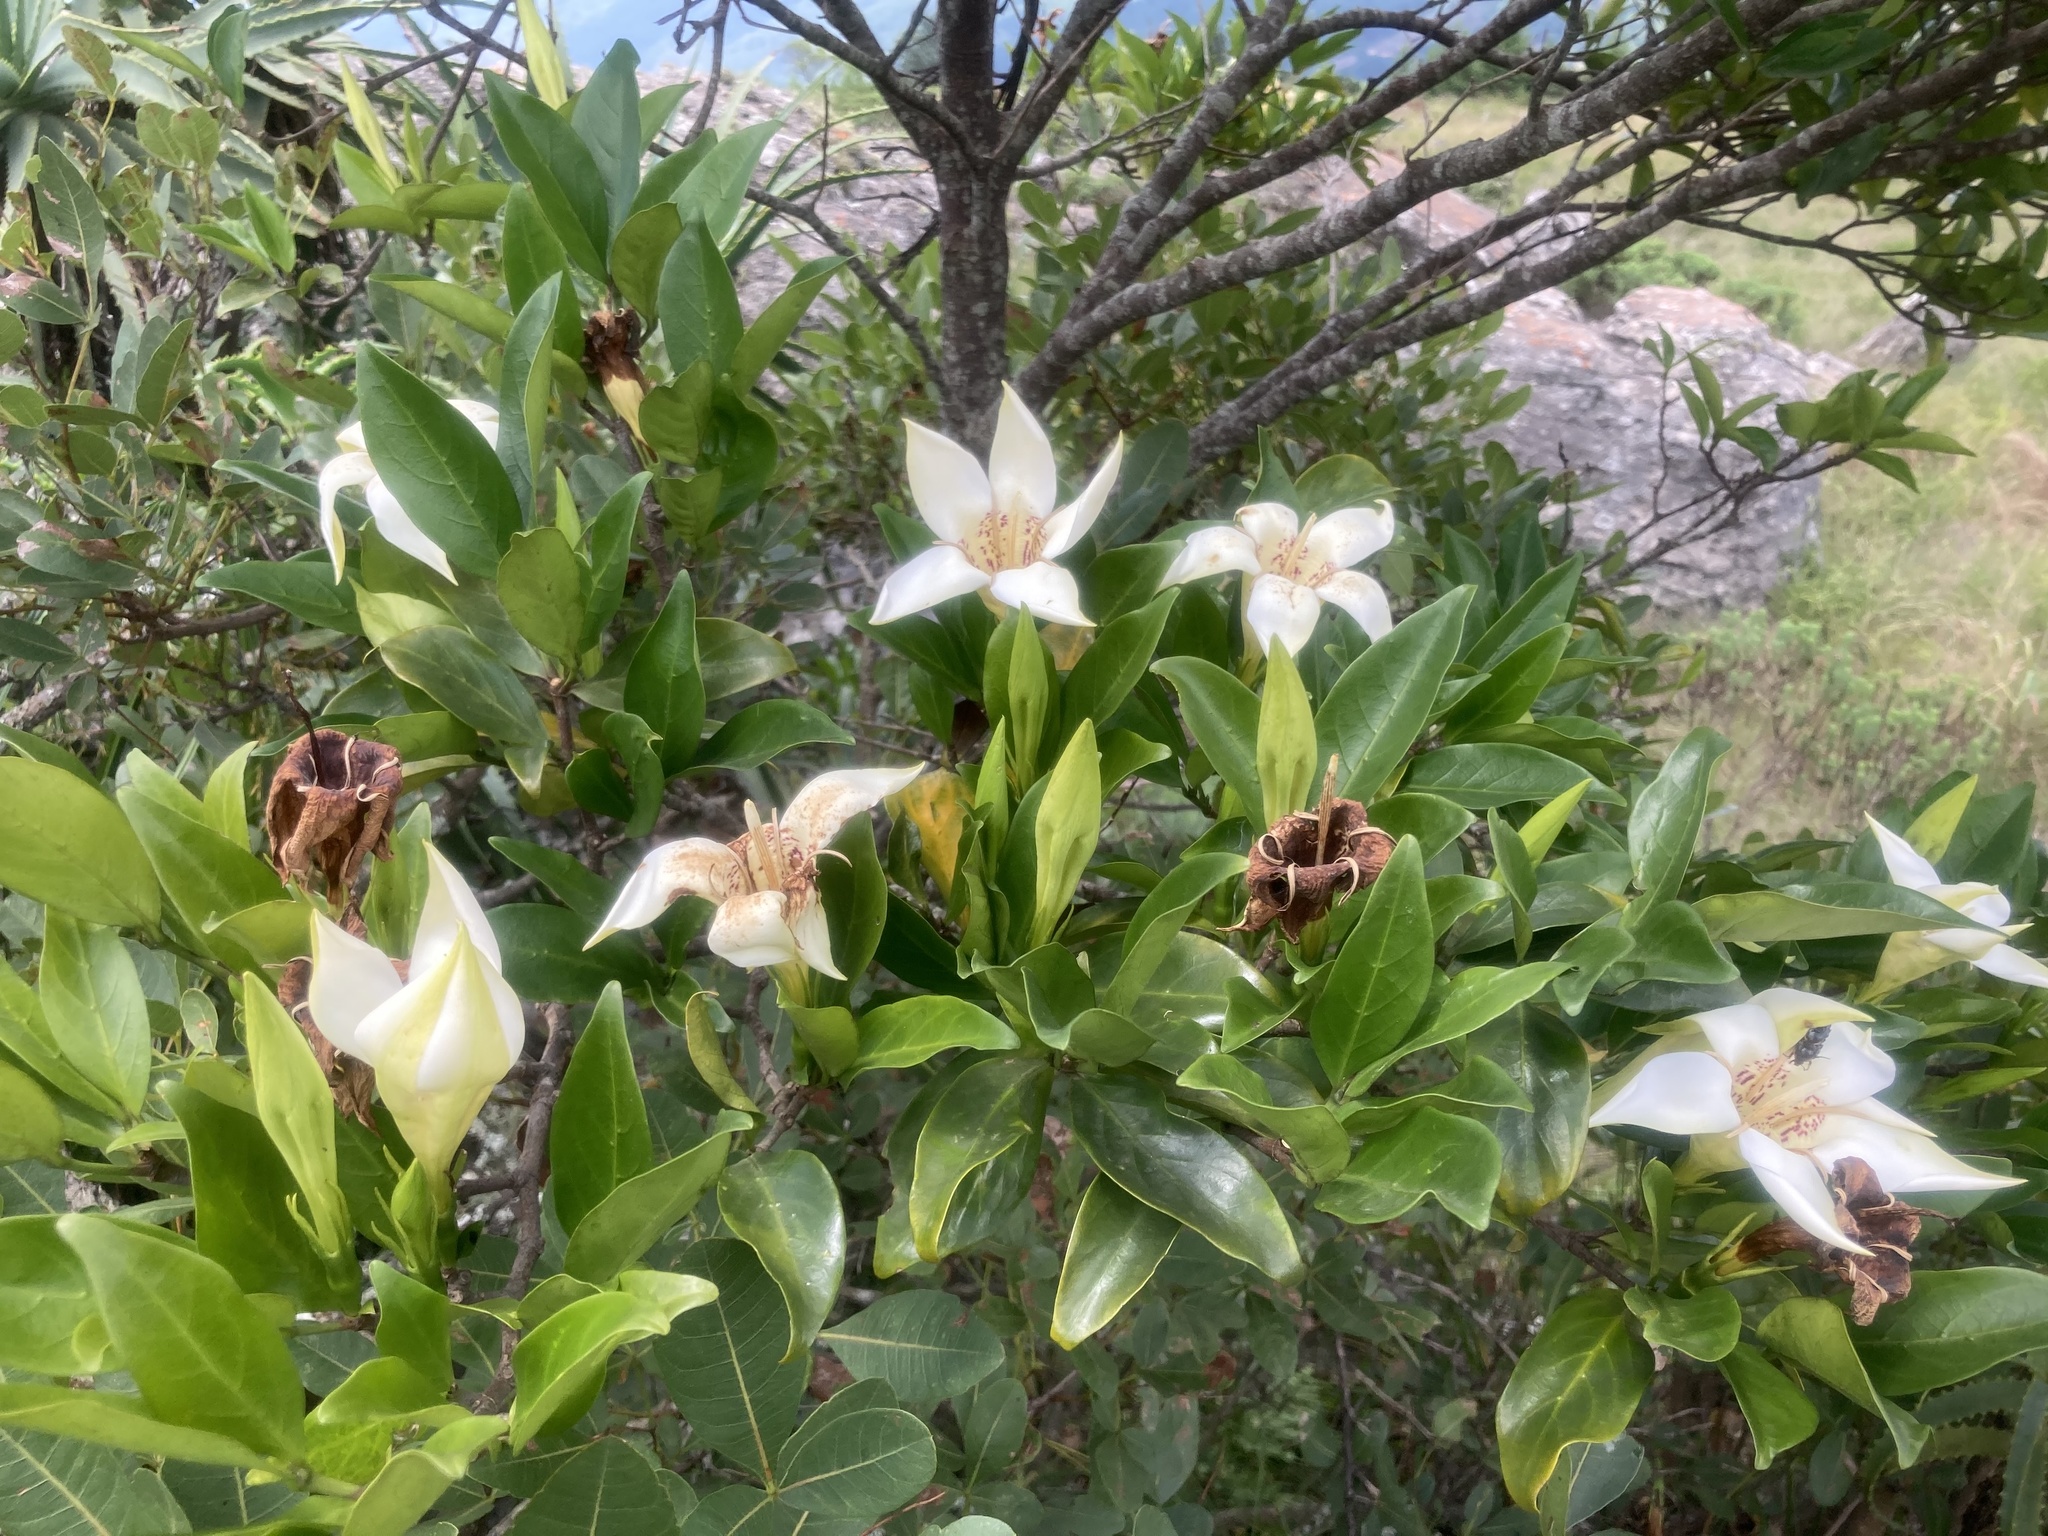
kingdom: Plantae
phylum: Tracheophyta
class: Magnoliopsida
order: Gentianales
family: Rubiaceae
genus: Rothmannia
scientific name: Rothmannia capensis
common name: Cape gardenia
